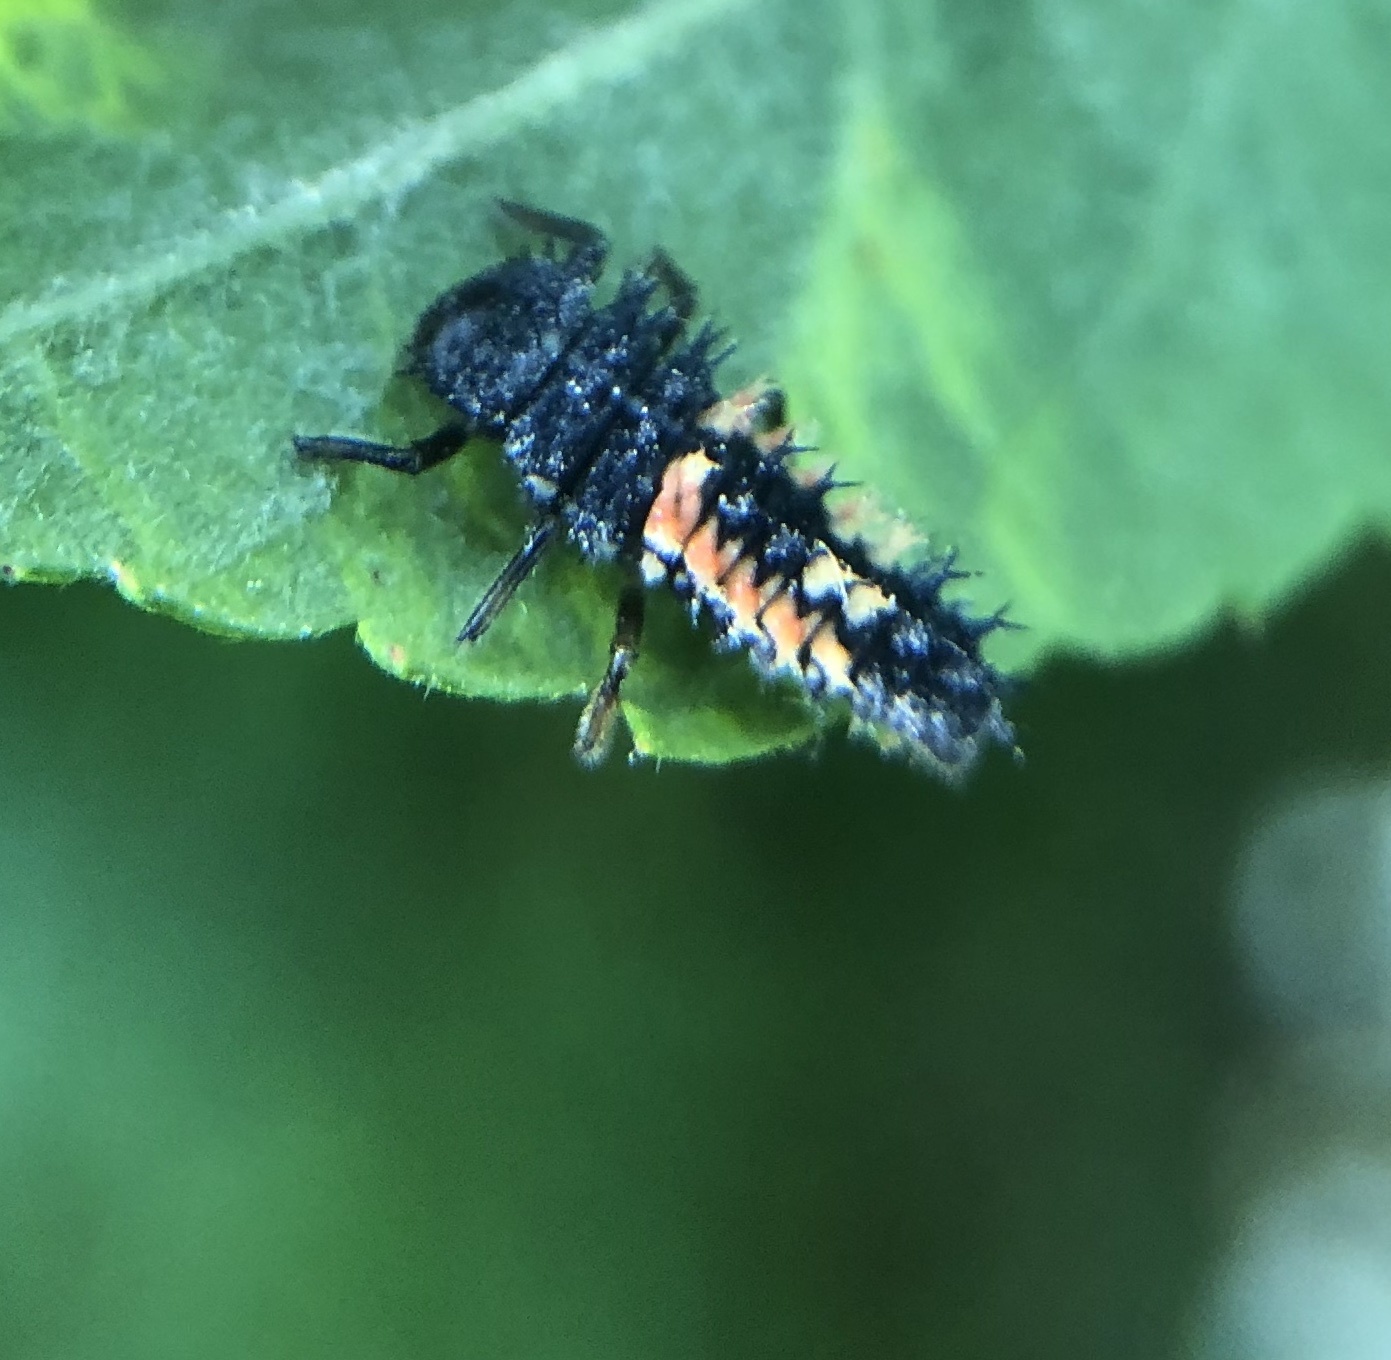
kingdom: Animalia
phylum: Arthropoda
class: Insecta
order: Coleoptera
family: Coccinellidae
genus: Harmonia
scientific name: Harmonia axyridis
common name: Harlequin ladybird
